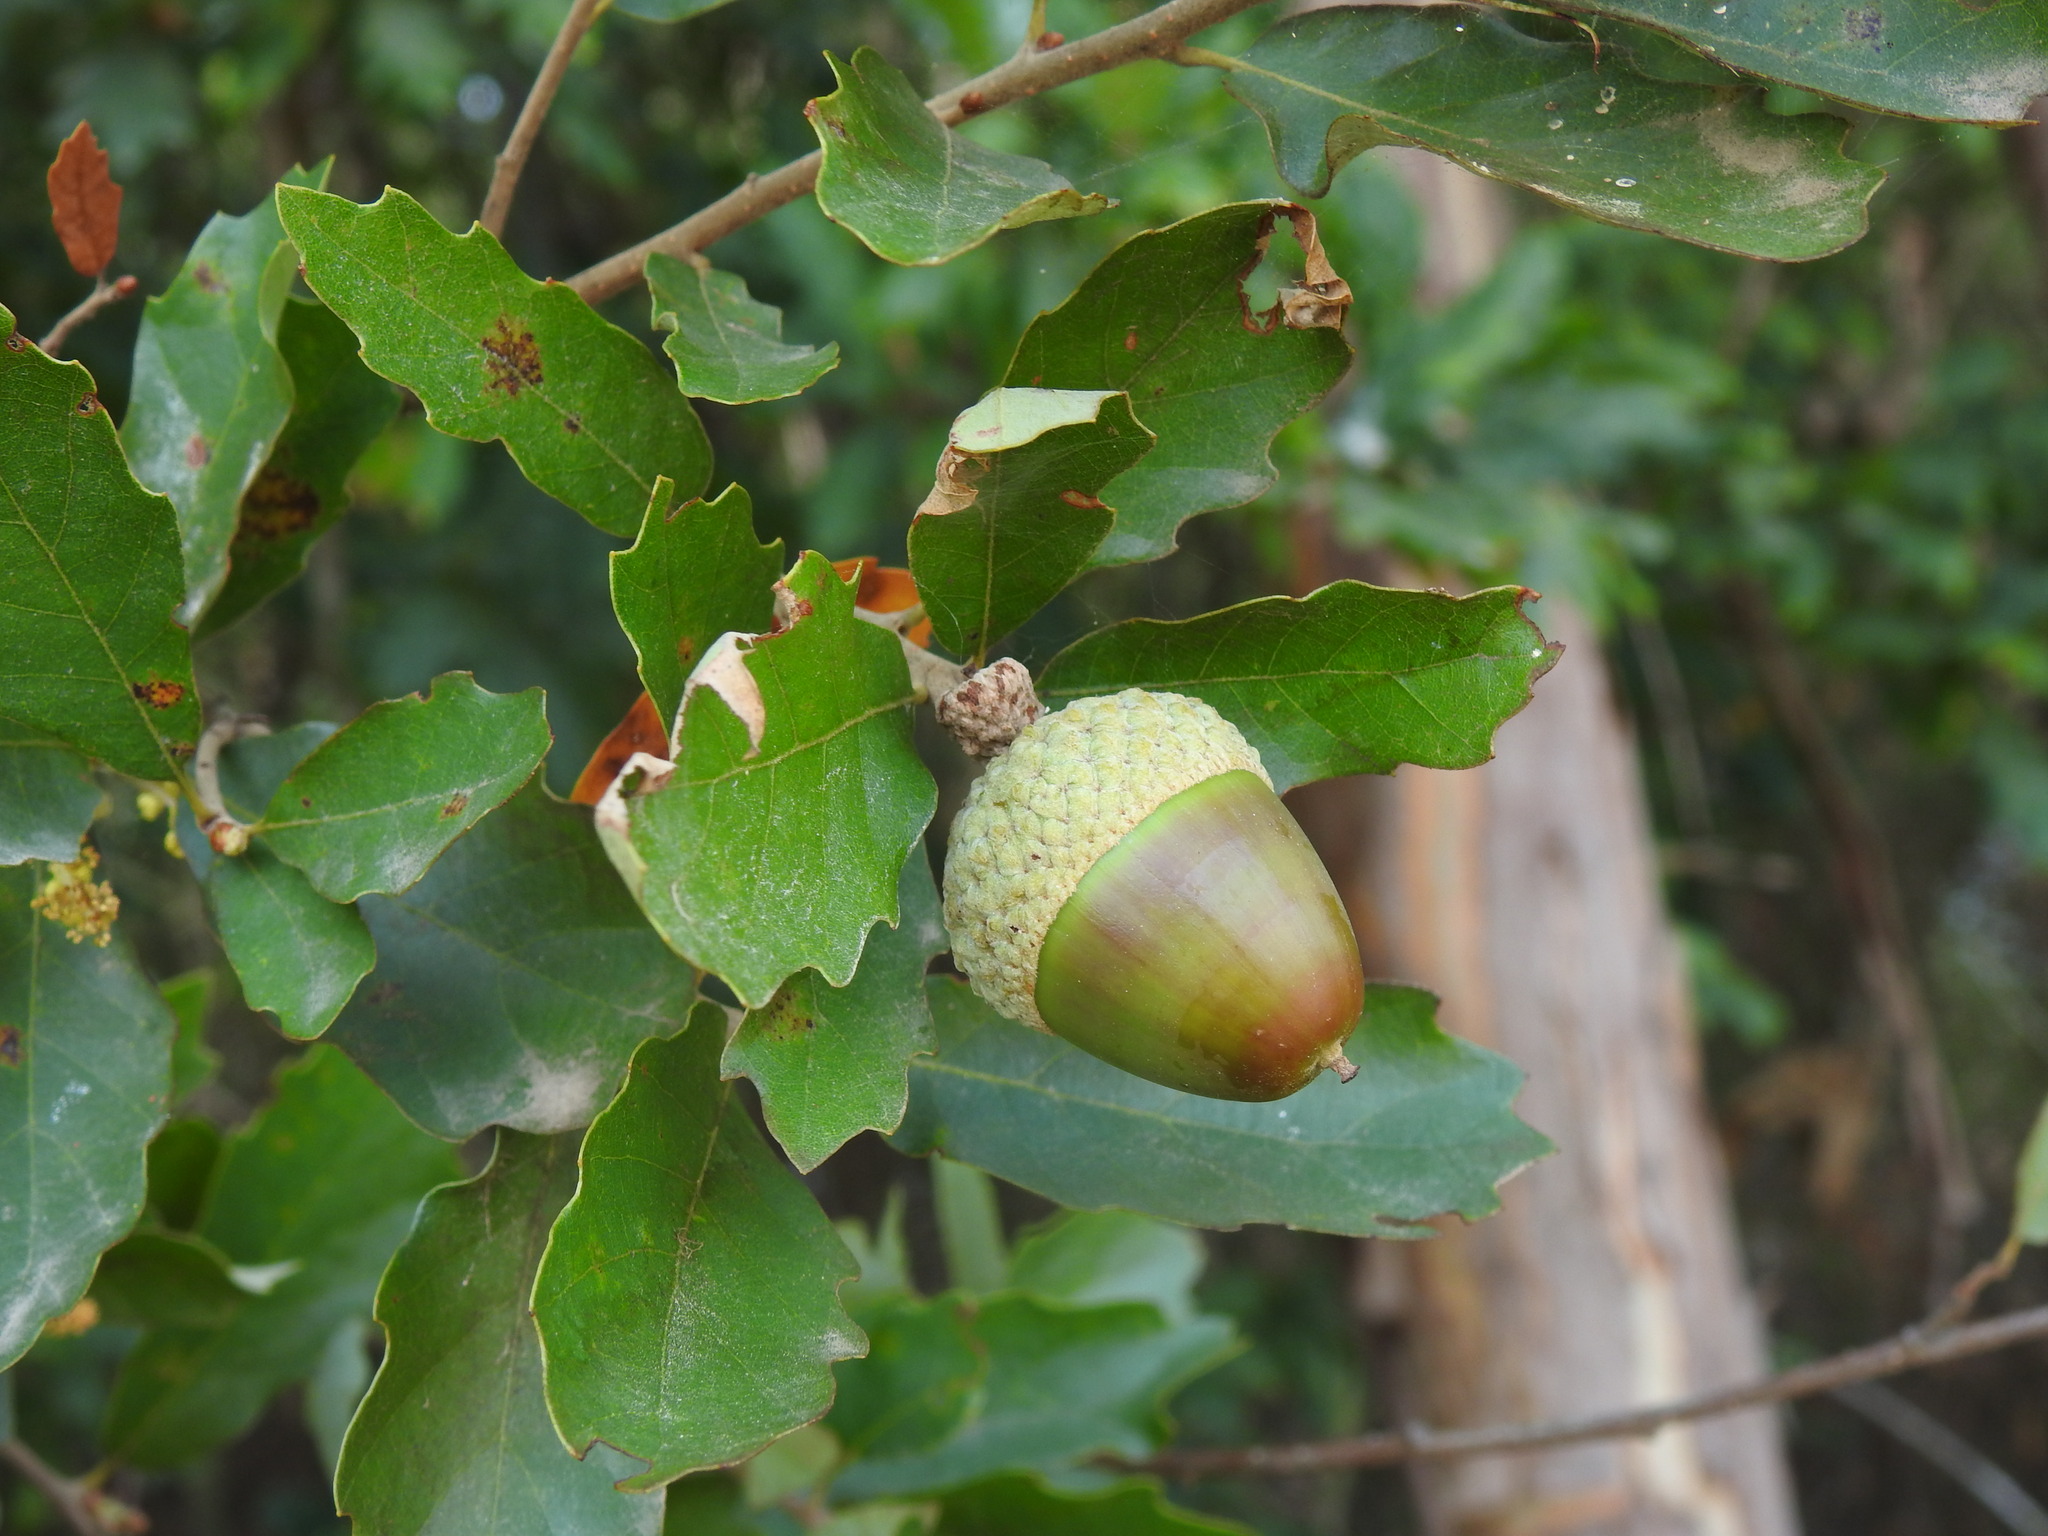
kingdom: Plantae
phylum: Tracheophyta
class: Magnoliopsida
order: Fagales
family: Fagaceae
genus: Quercus
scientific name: Quercus lusitanica
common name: Scrub gall oak
